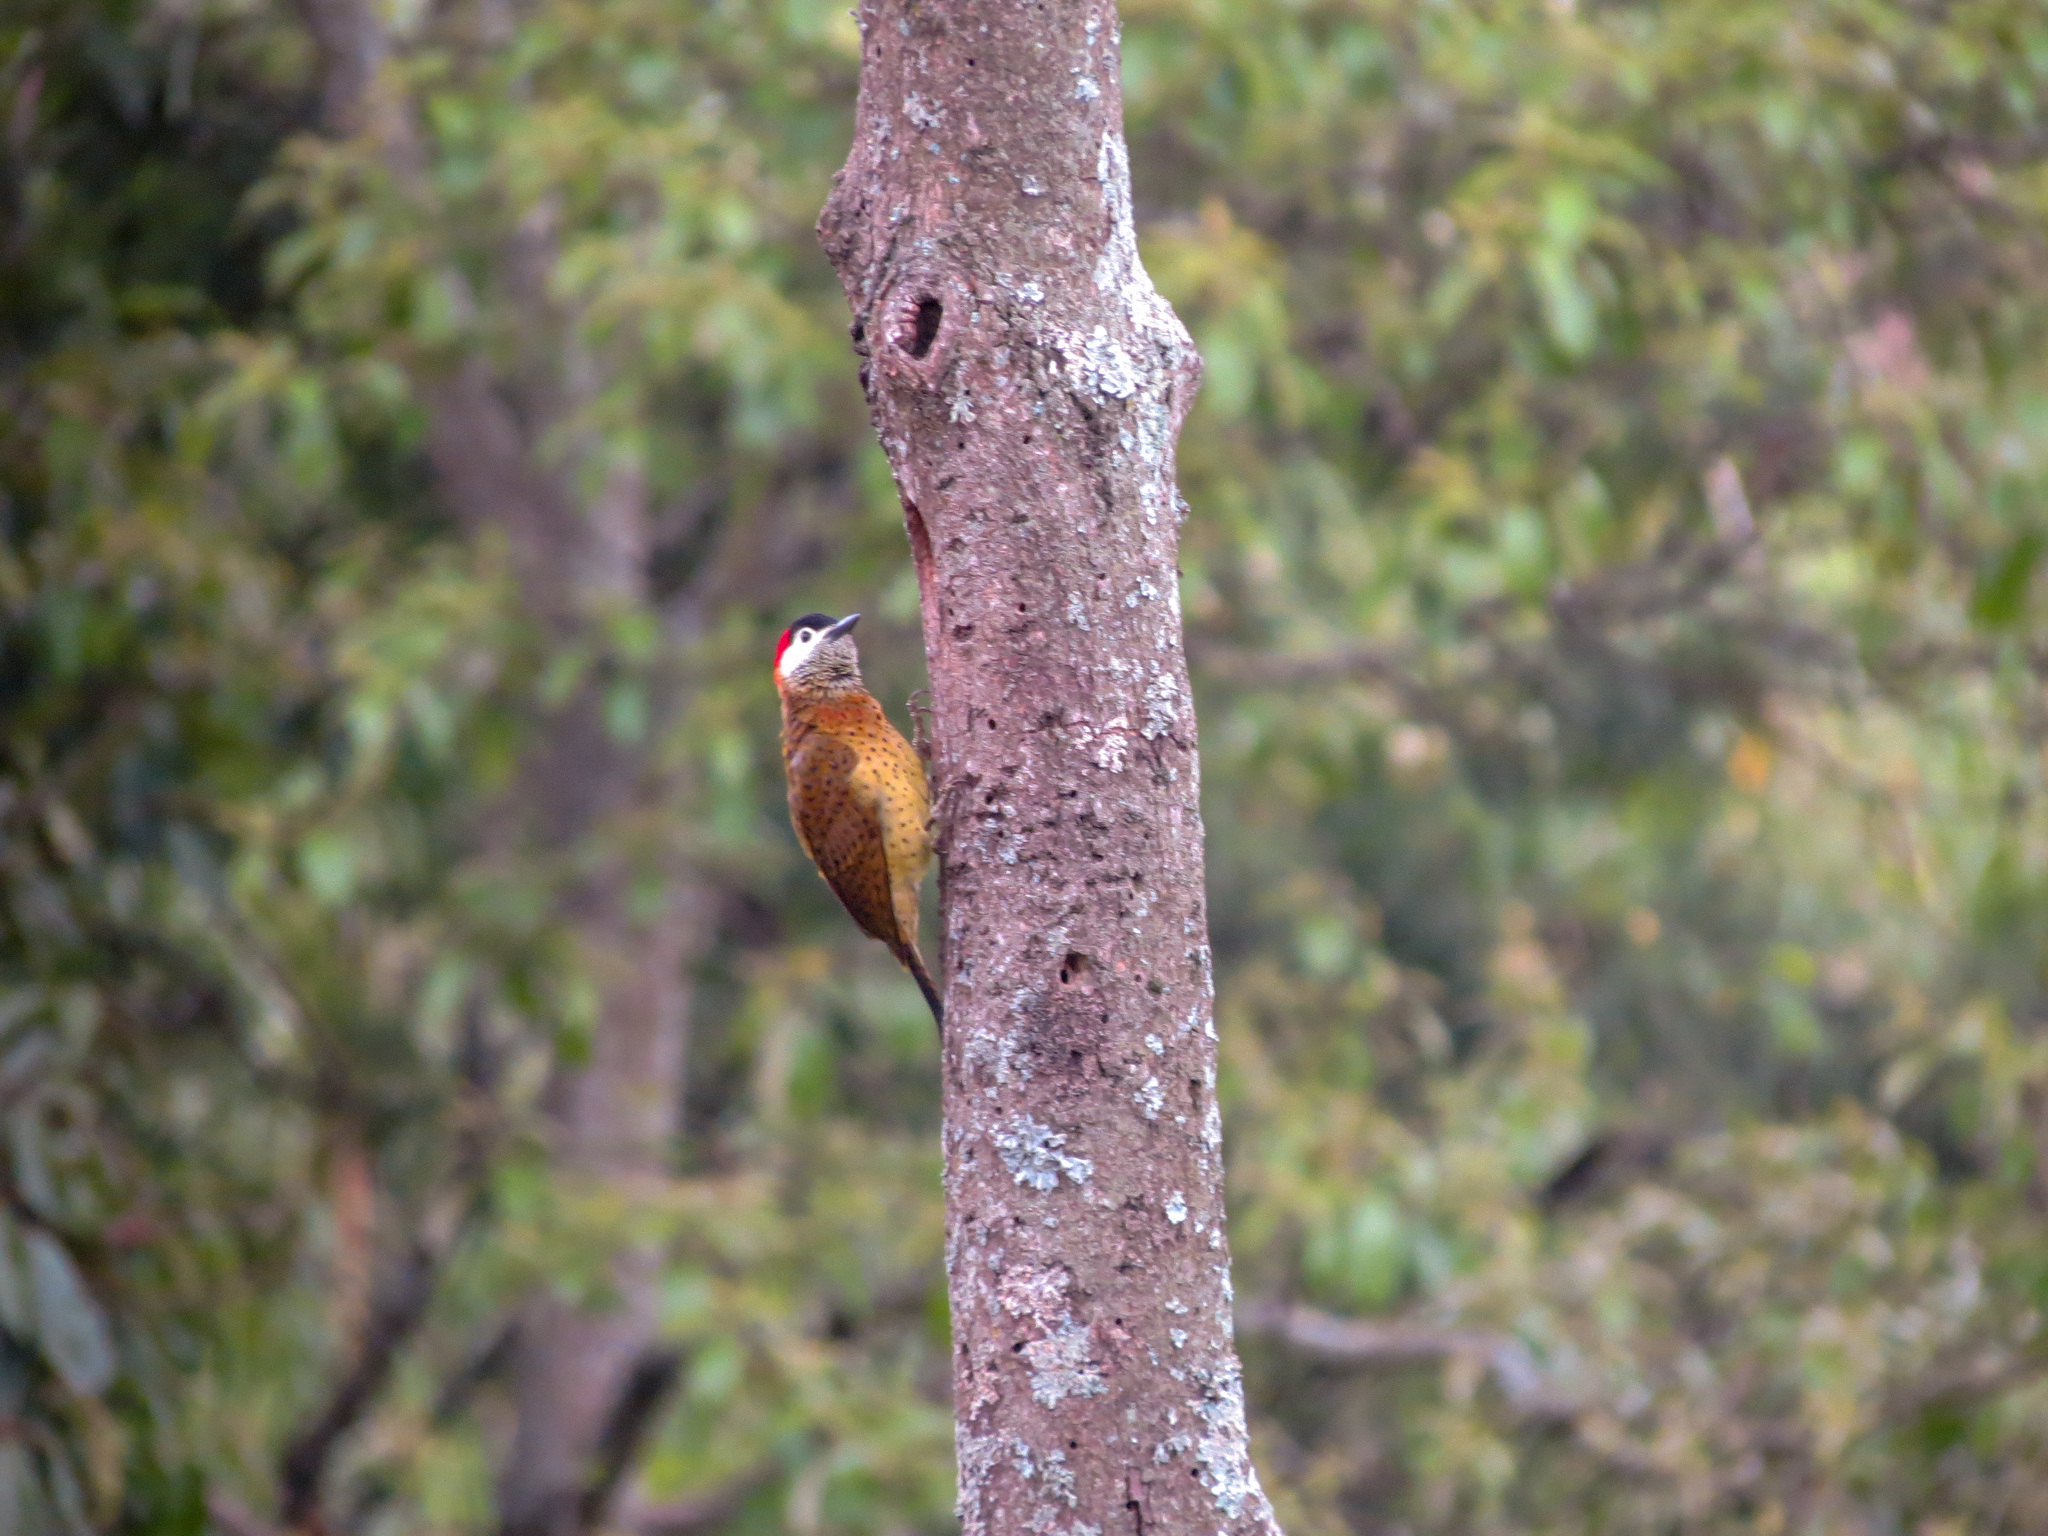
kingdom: Animalia
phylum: Chordata
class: Aves
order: Piciformes
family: Picidae
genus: Colaptes
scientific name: Colaptes punctigula
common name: Spot-breasted woodpecker
